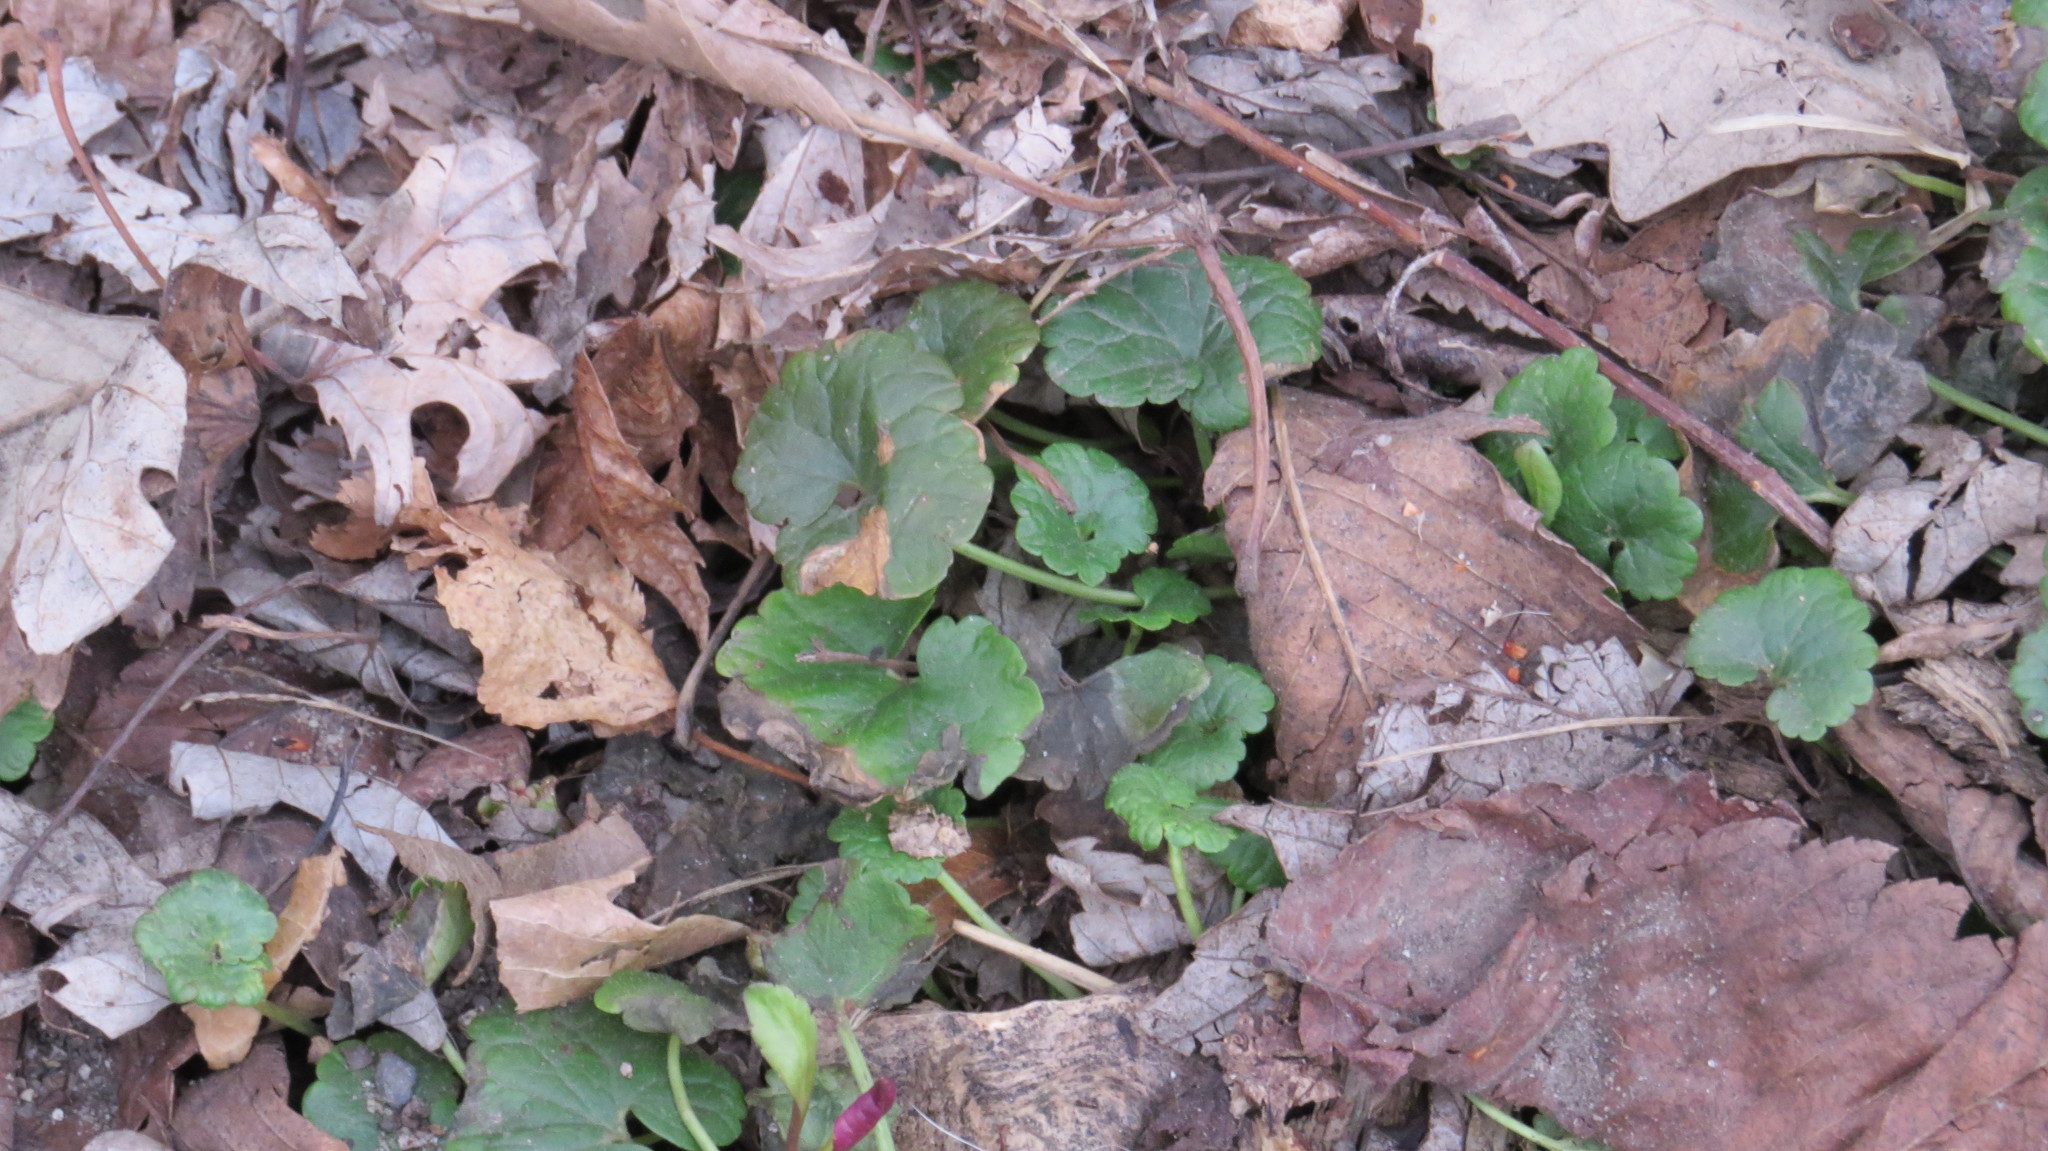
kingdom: Plantae
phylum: Tracheophyta
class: Magnoliopsida
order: Lamiales
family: Lamiaceae
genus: Glechoma
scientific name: Glechoma hederacea
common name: Ground ivy
